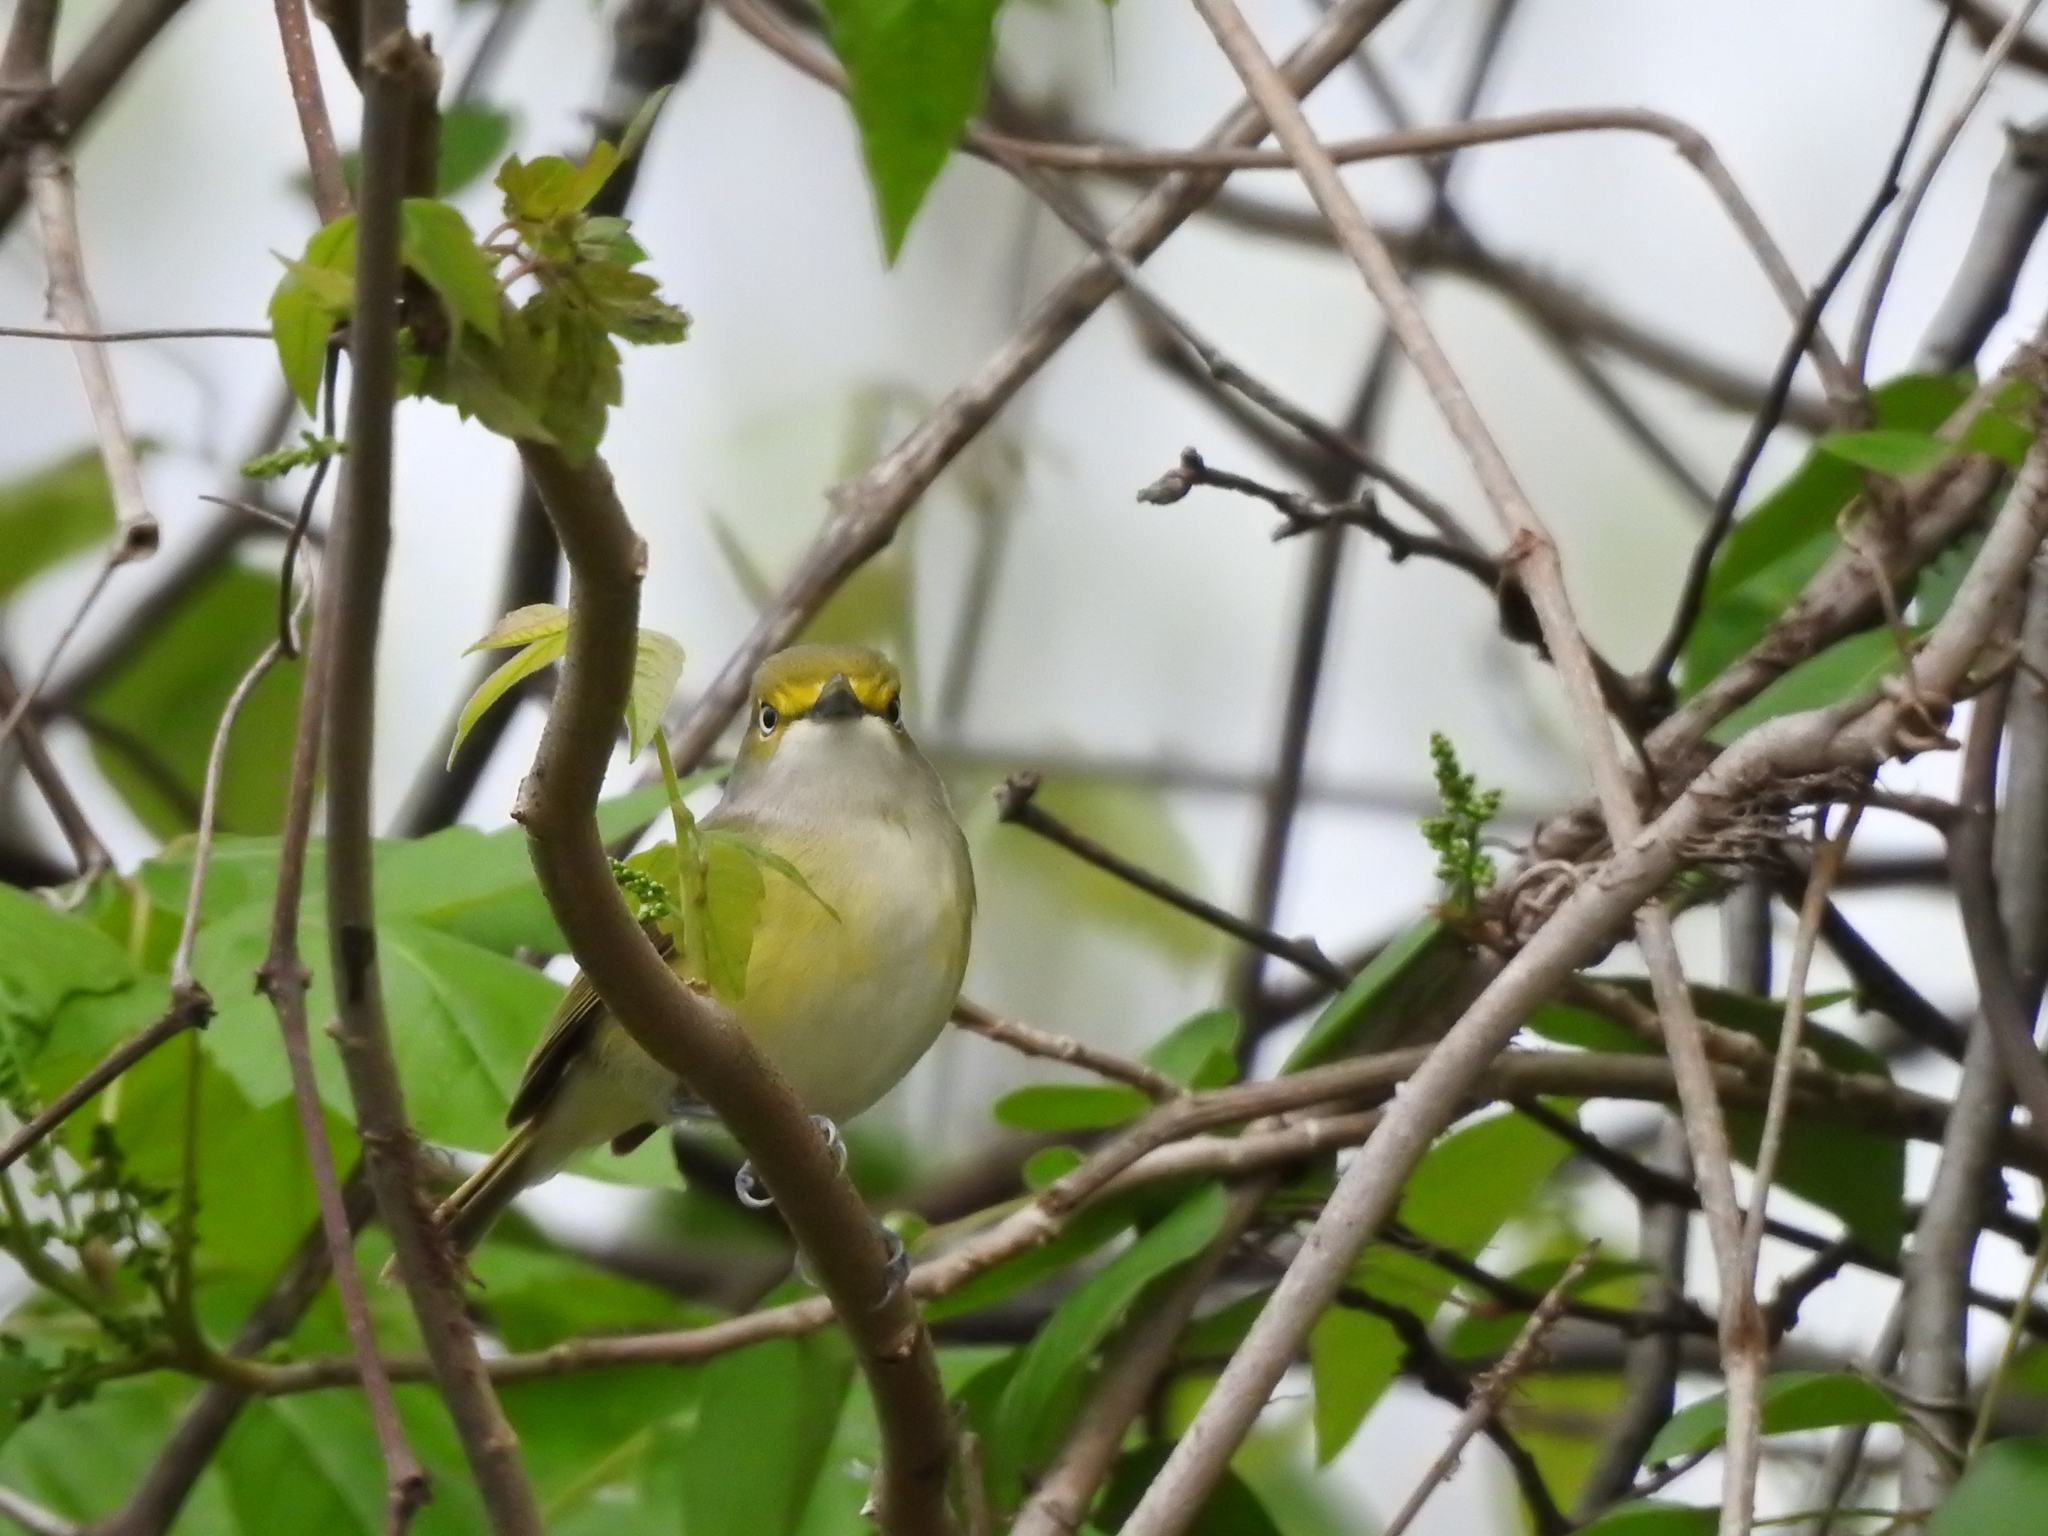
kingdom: Animalia
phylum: Chordata
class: Aves
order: Passeriformes
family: Vireonidae
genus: Vireo
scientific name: Vireo griseus
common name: White-eyed vireo
